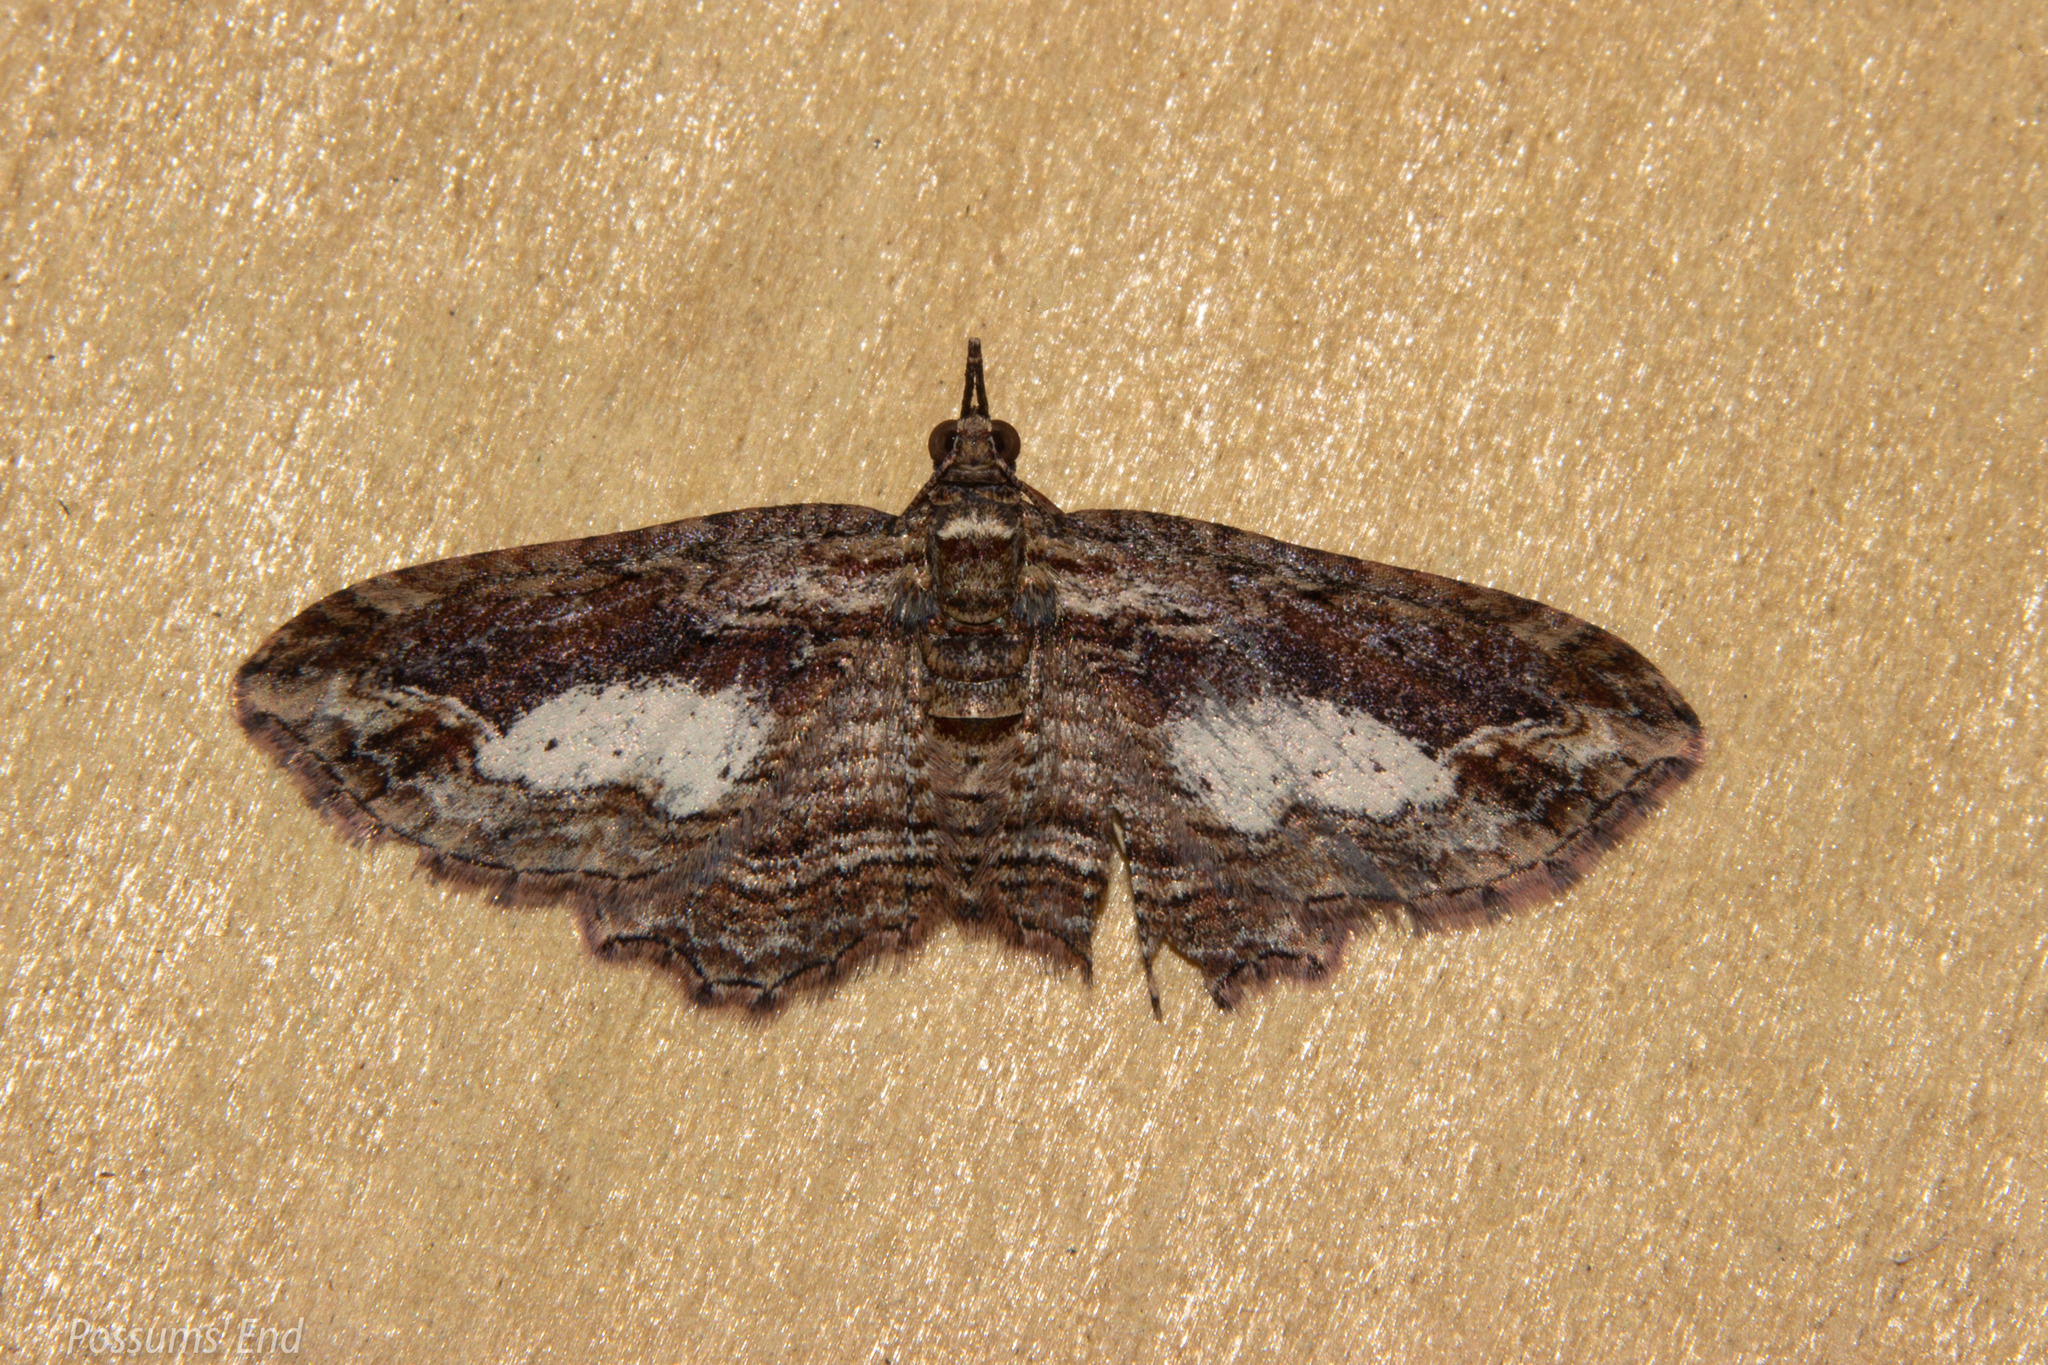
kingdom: Animalia
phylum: Arthropoda
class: Insecta
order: Lepidoptera
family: Geometridae
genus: Chloroclystis
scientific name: Chloroclystis filata
